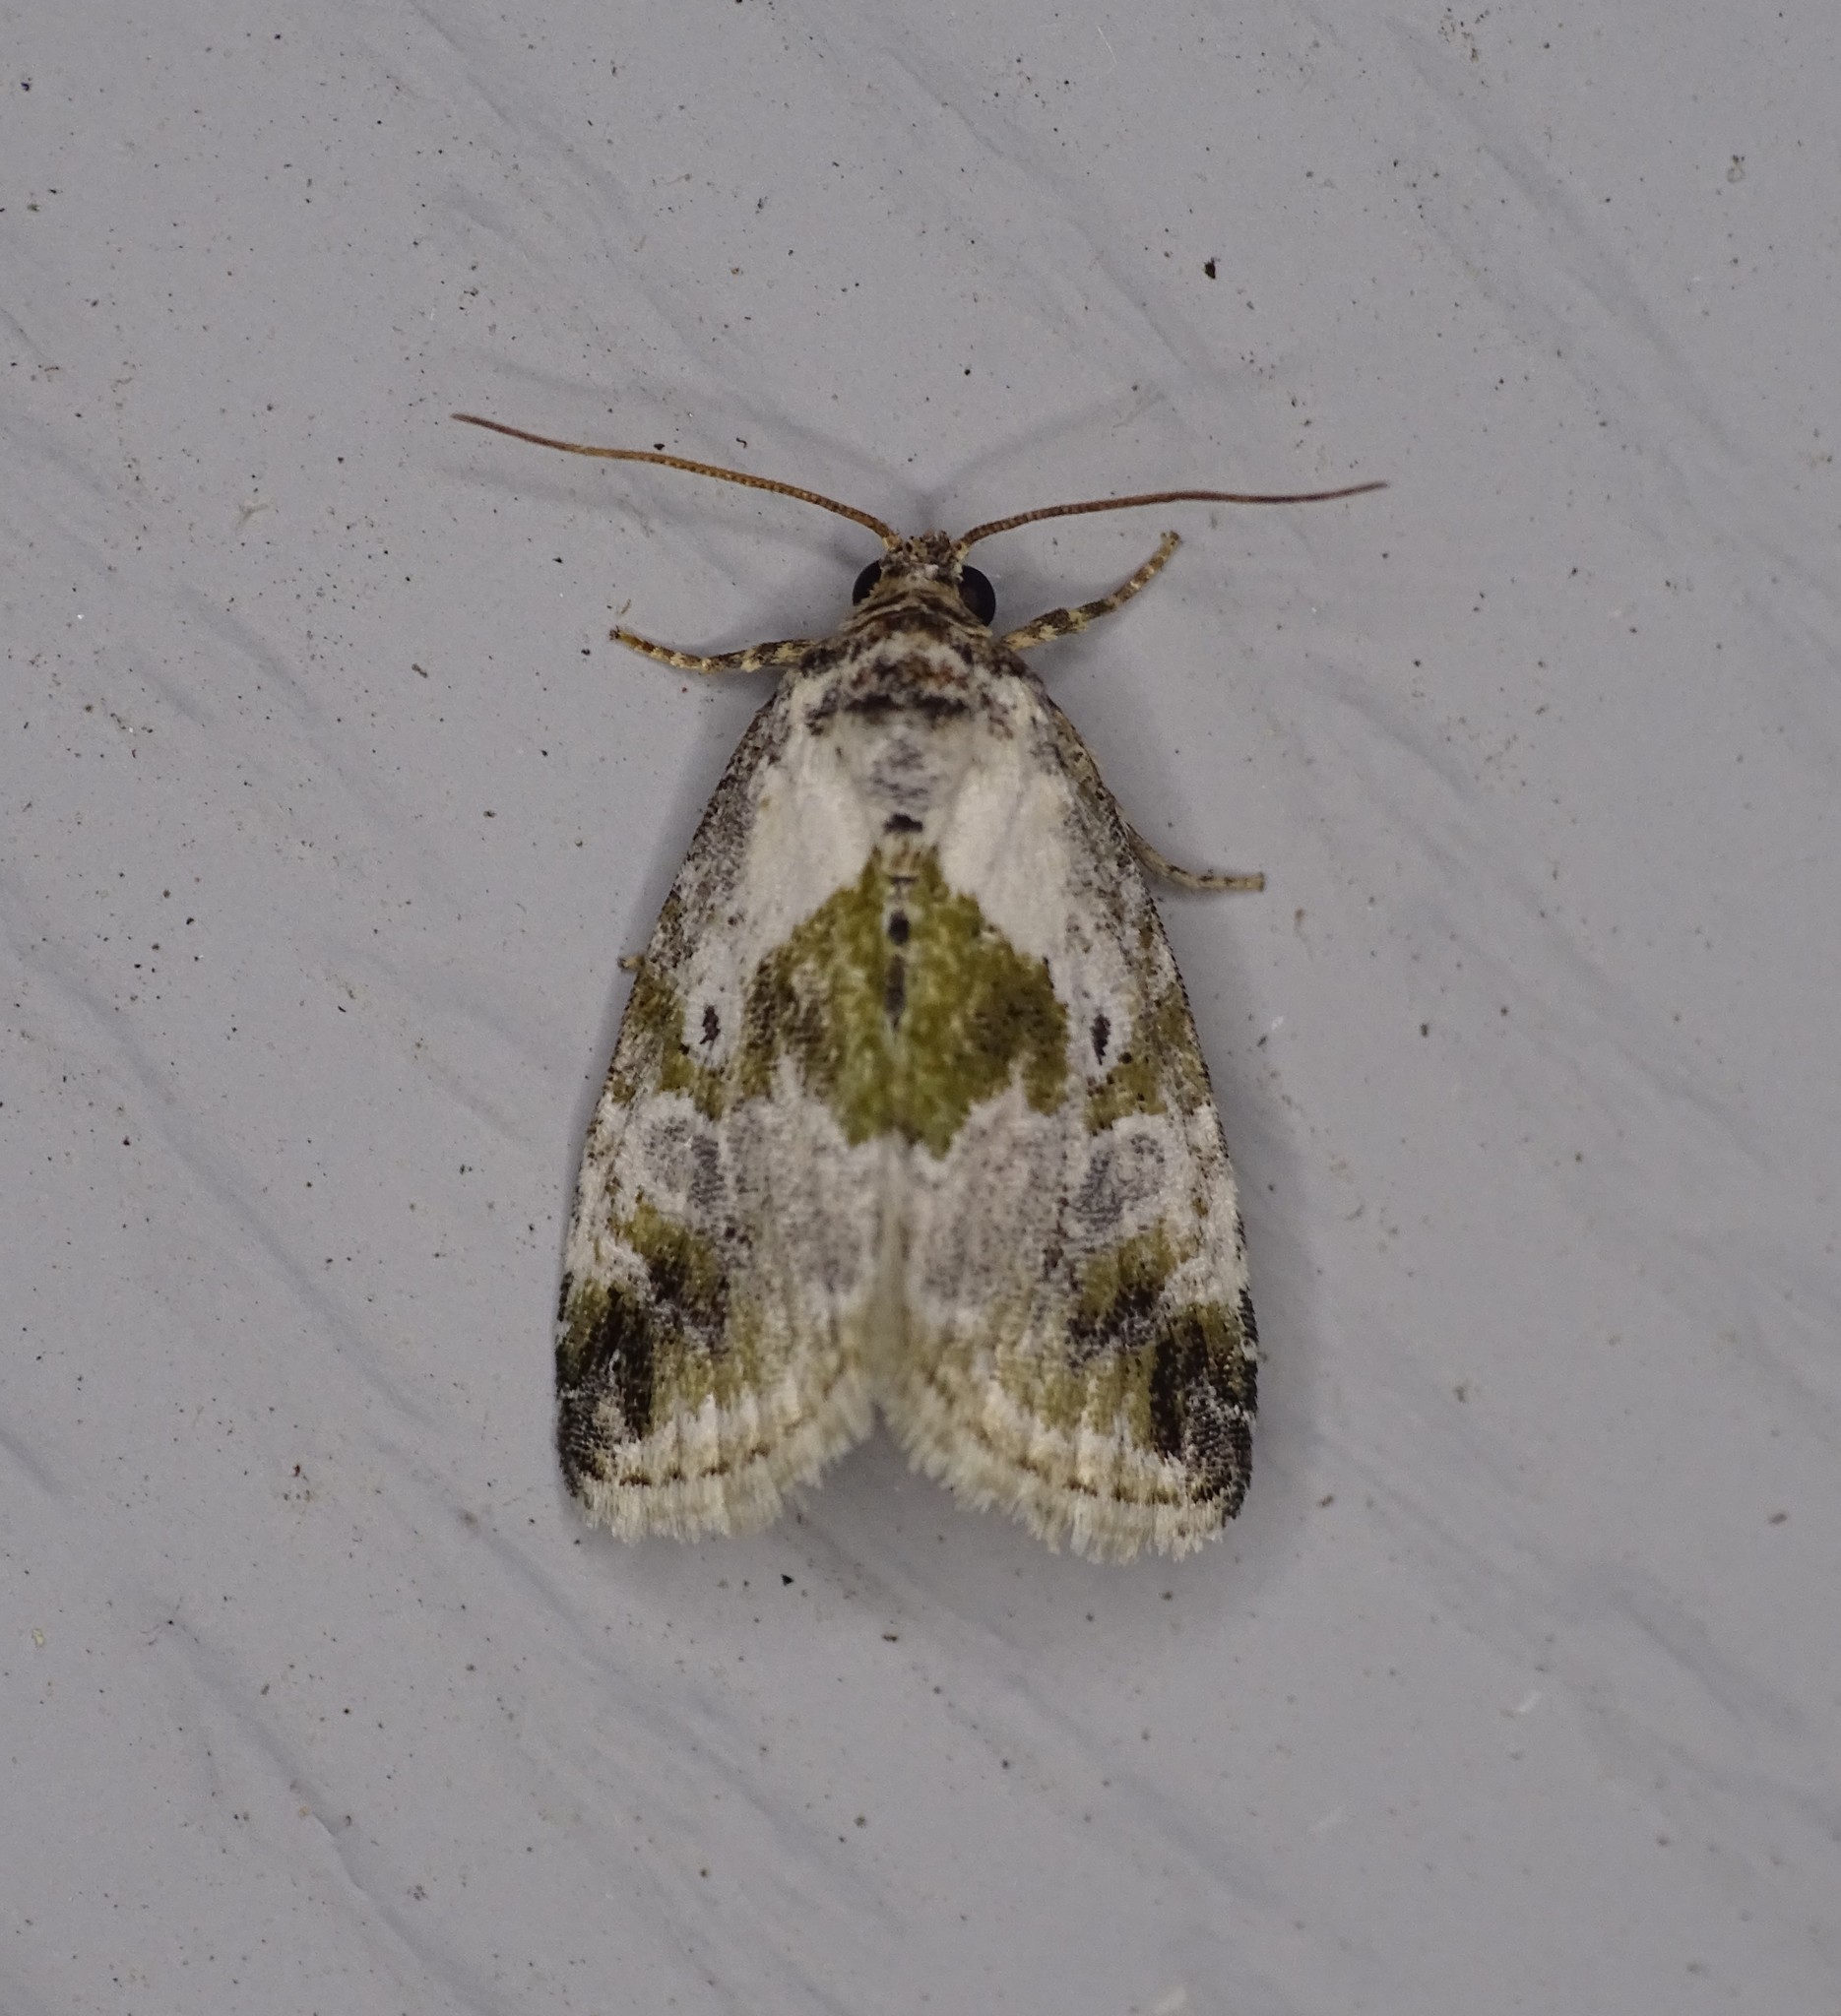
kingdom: Animalia
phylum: Arthropoda
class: Insecta
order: Lepidoptera
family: Noctuidae
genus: Maliattha
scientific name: Maliattha synochitis
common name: Black-dotted glyph
